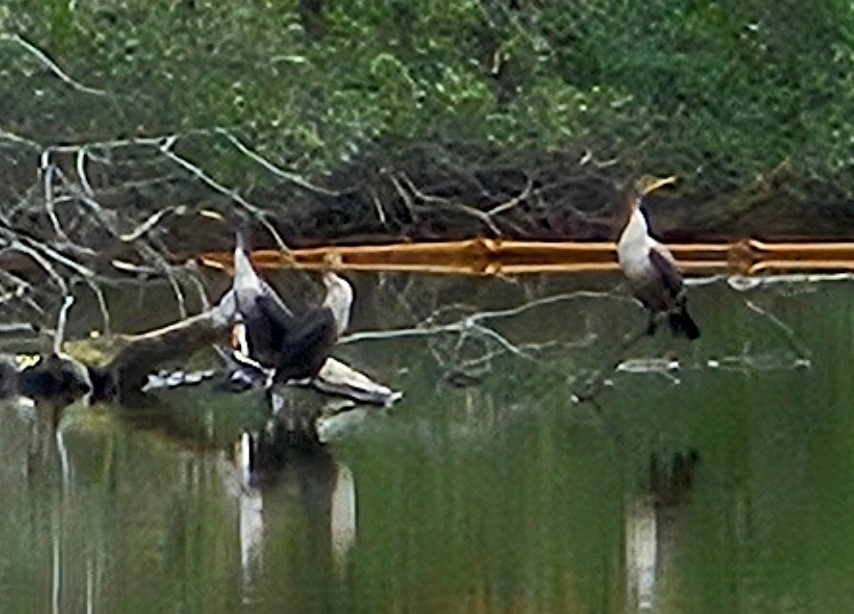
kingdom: Animalia
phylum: Chordata
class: Aves
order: Suliformes
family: Phalacrocoracidae
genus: Phalacrocorax
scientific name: Phalacrocorax auritus
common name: Double-crested cormorant
